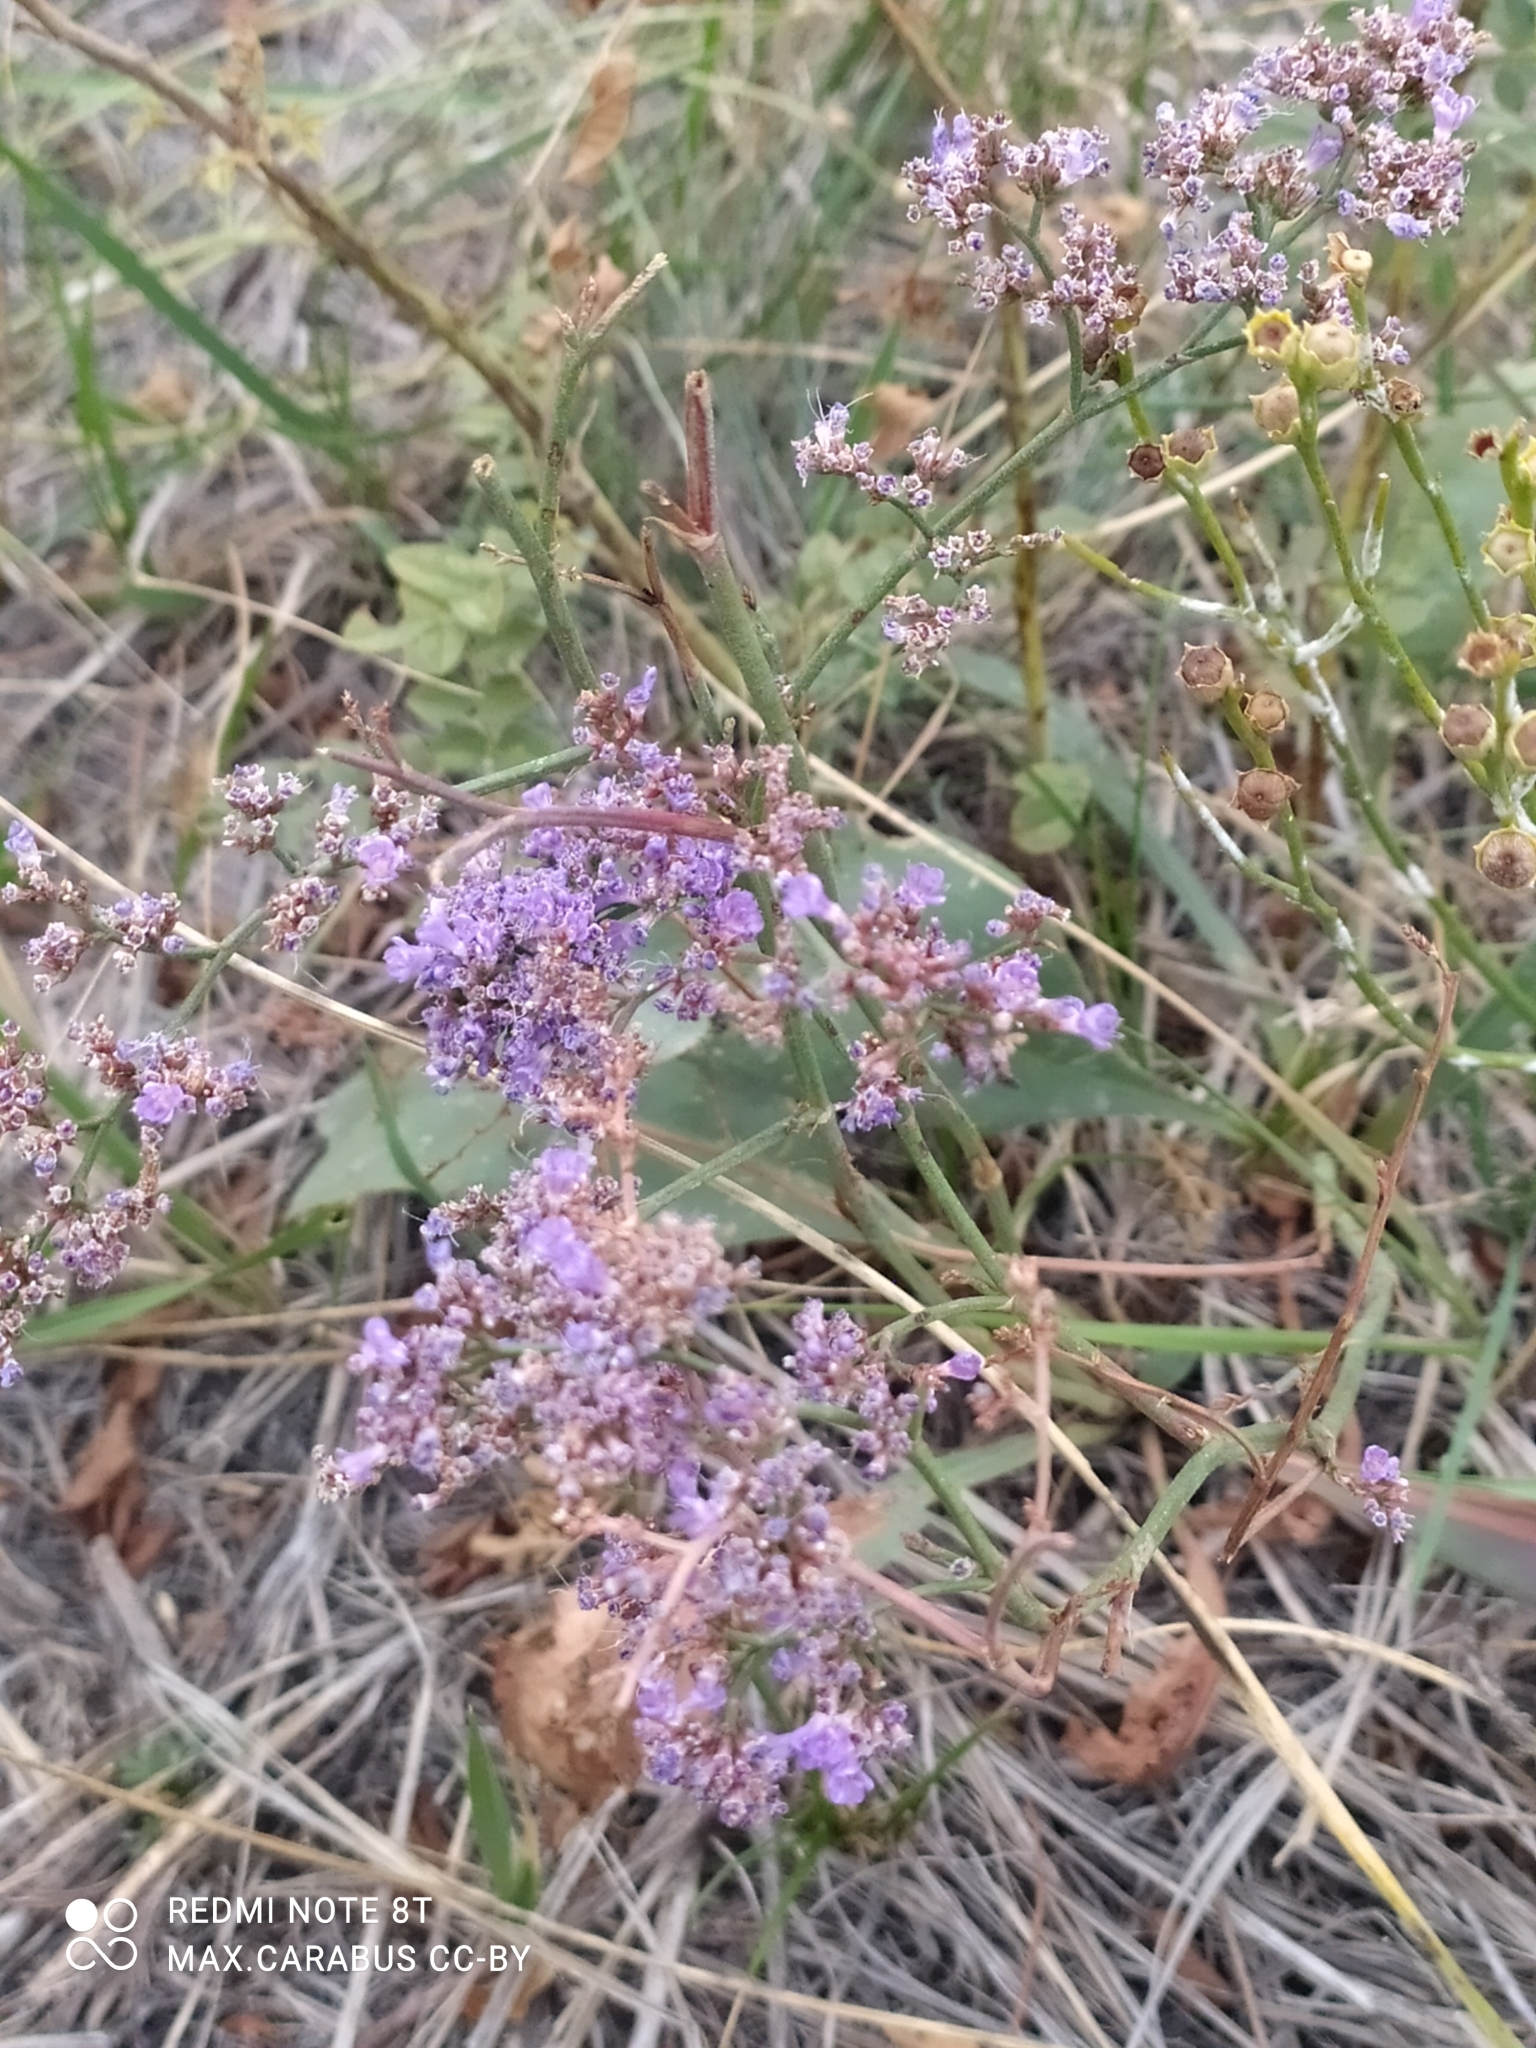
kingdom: Plantae
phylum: Tracheophyta
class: Magnoliopsida
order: Caryophyllales
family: Plumbaginaceae
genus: Limonium
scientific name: Limonium gmelini
